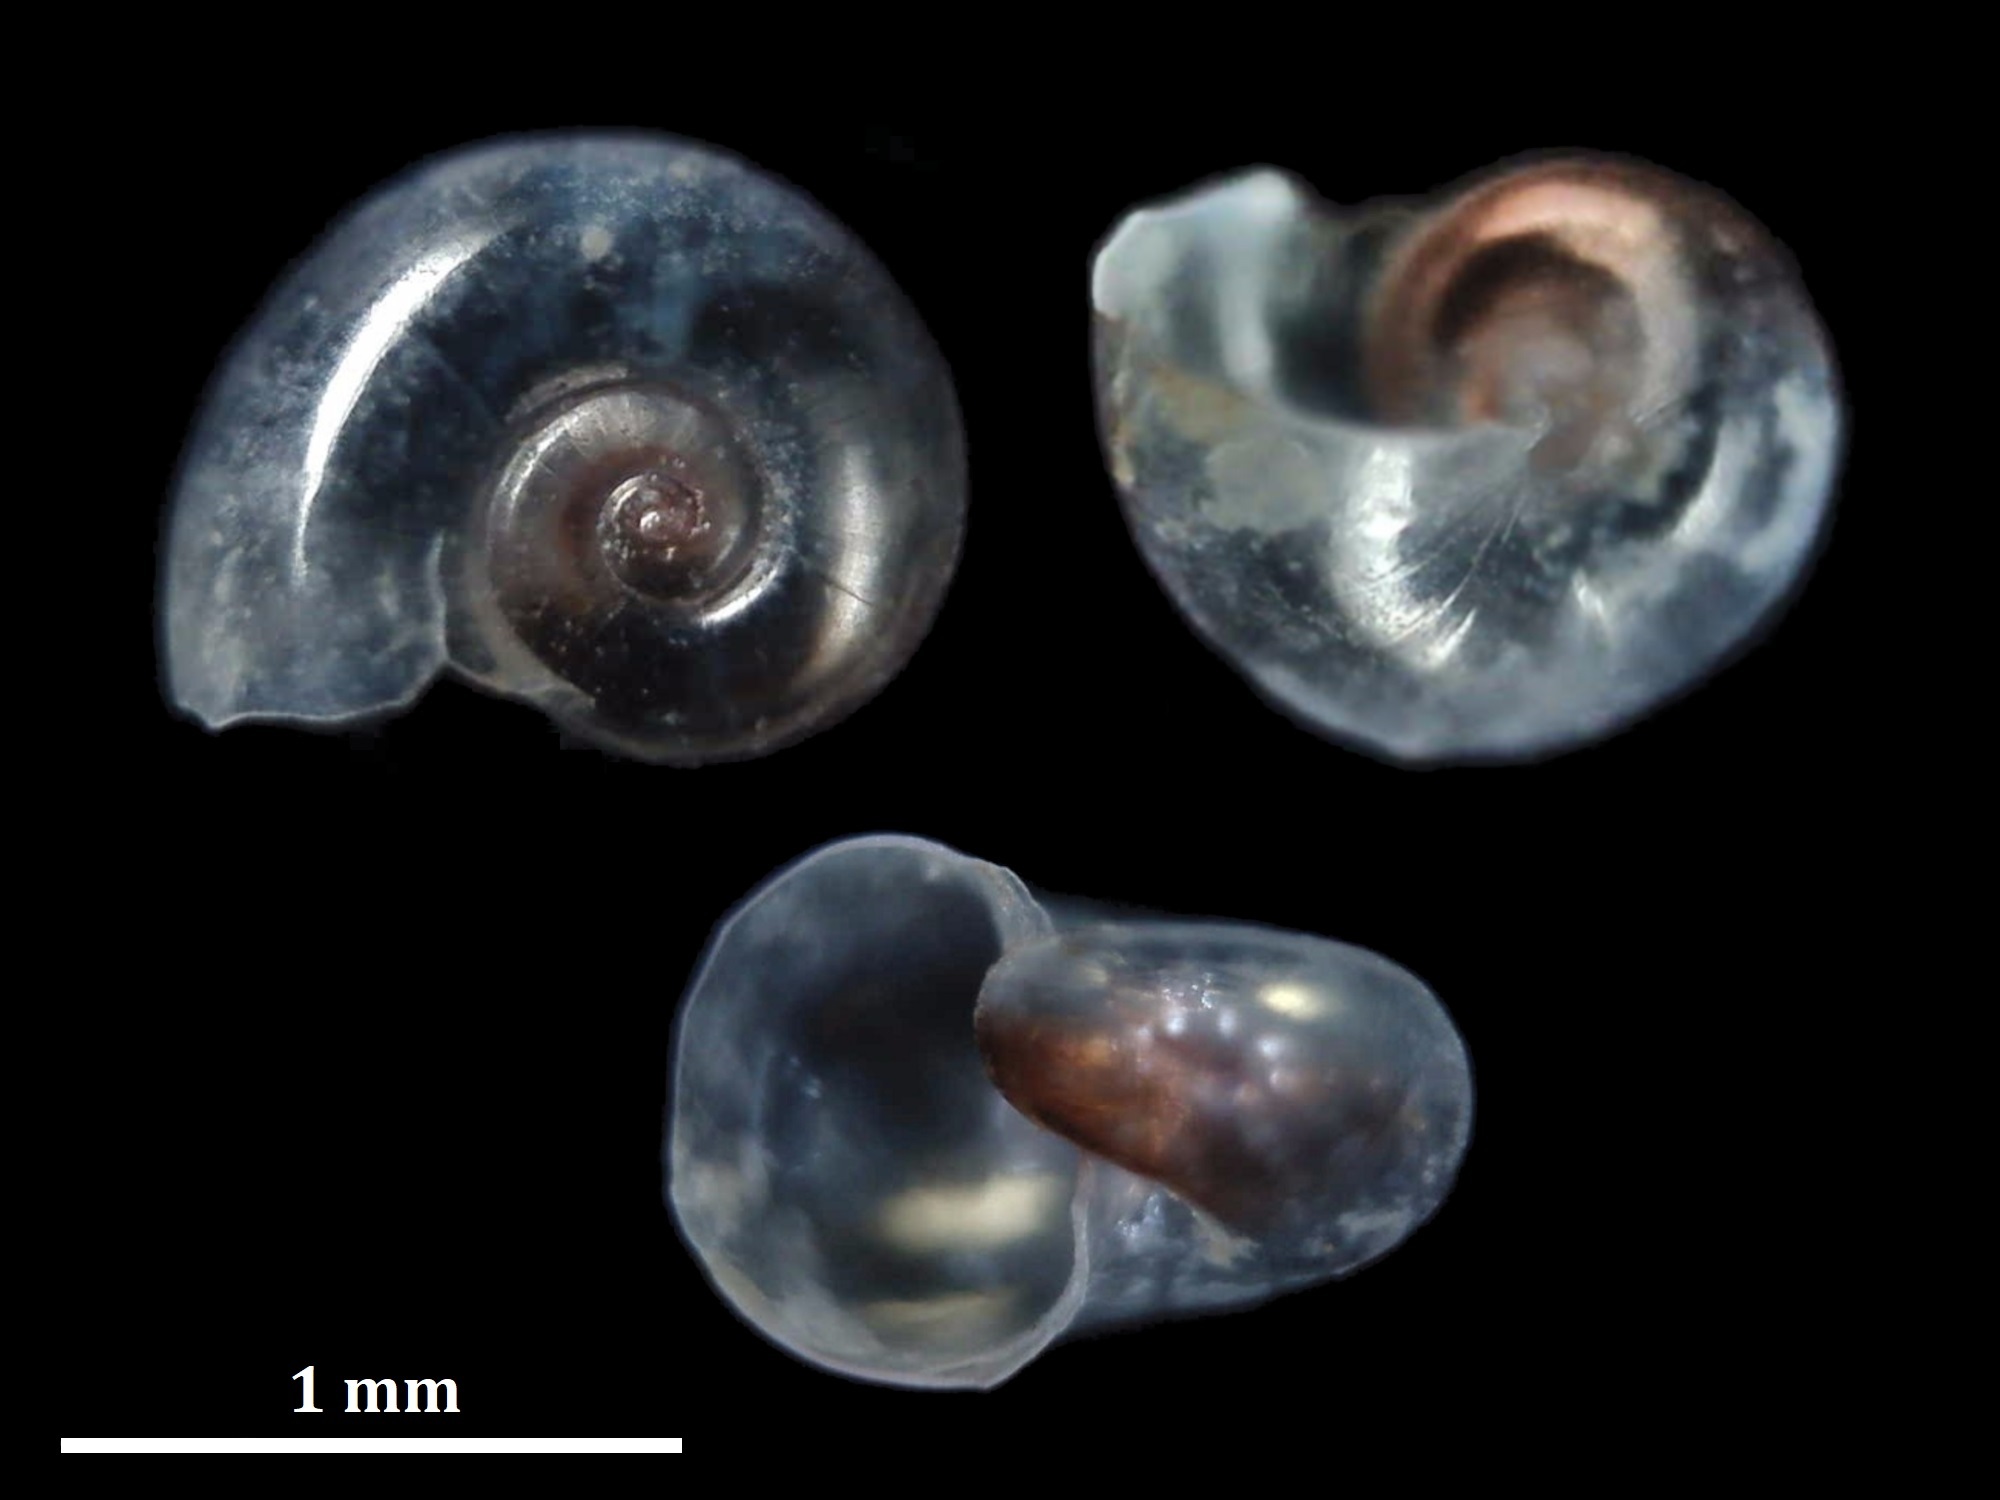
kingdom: Animalia
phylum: Mollusca
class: Gastropoda
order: Pteropoda
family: Heliconoididae
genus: Heliconoides
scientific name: Heliconoides inflatus
